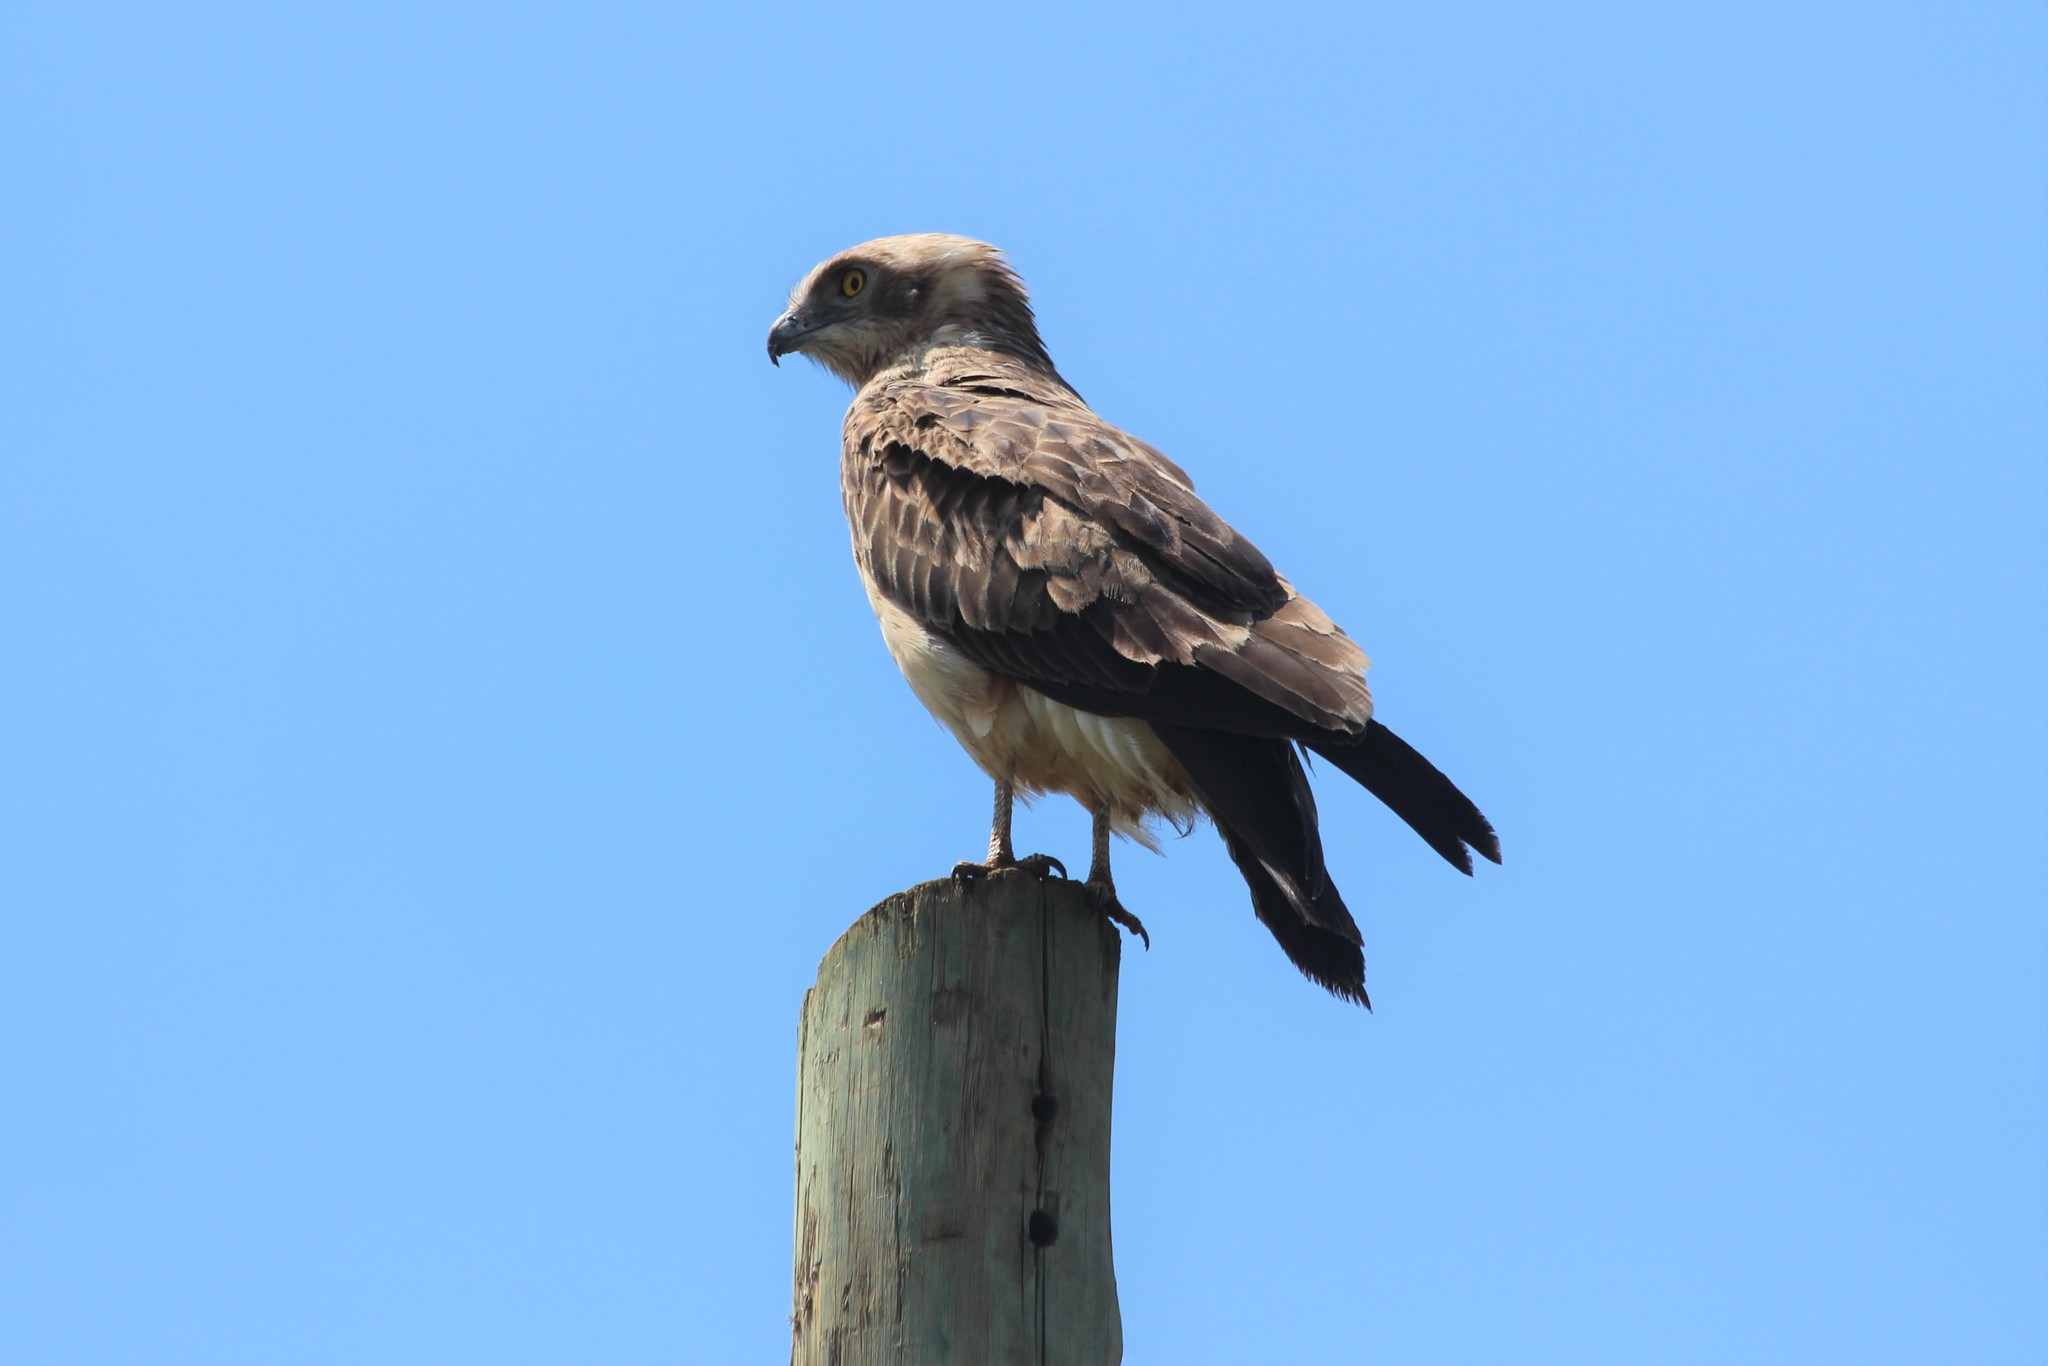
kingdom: Animalia
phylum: Chordata
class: Aves
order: Accipitriformes
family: Accipitridae
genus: Circaetus
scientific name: Circaetus pectoralis
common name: Black-chested snake eagle
